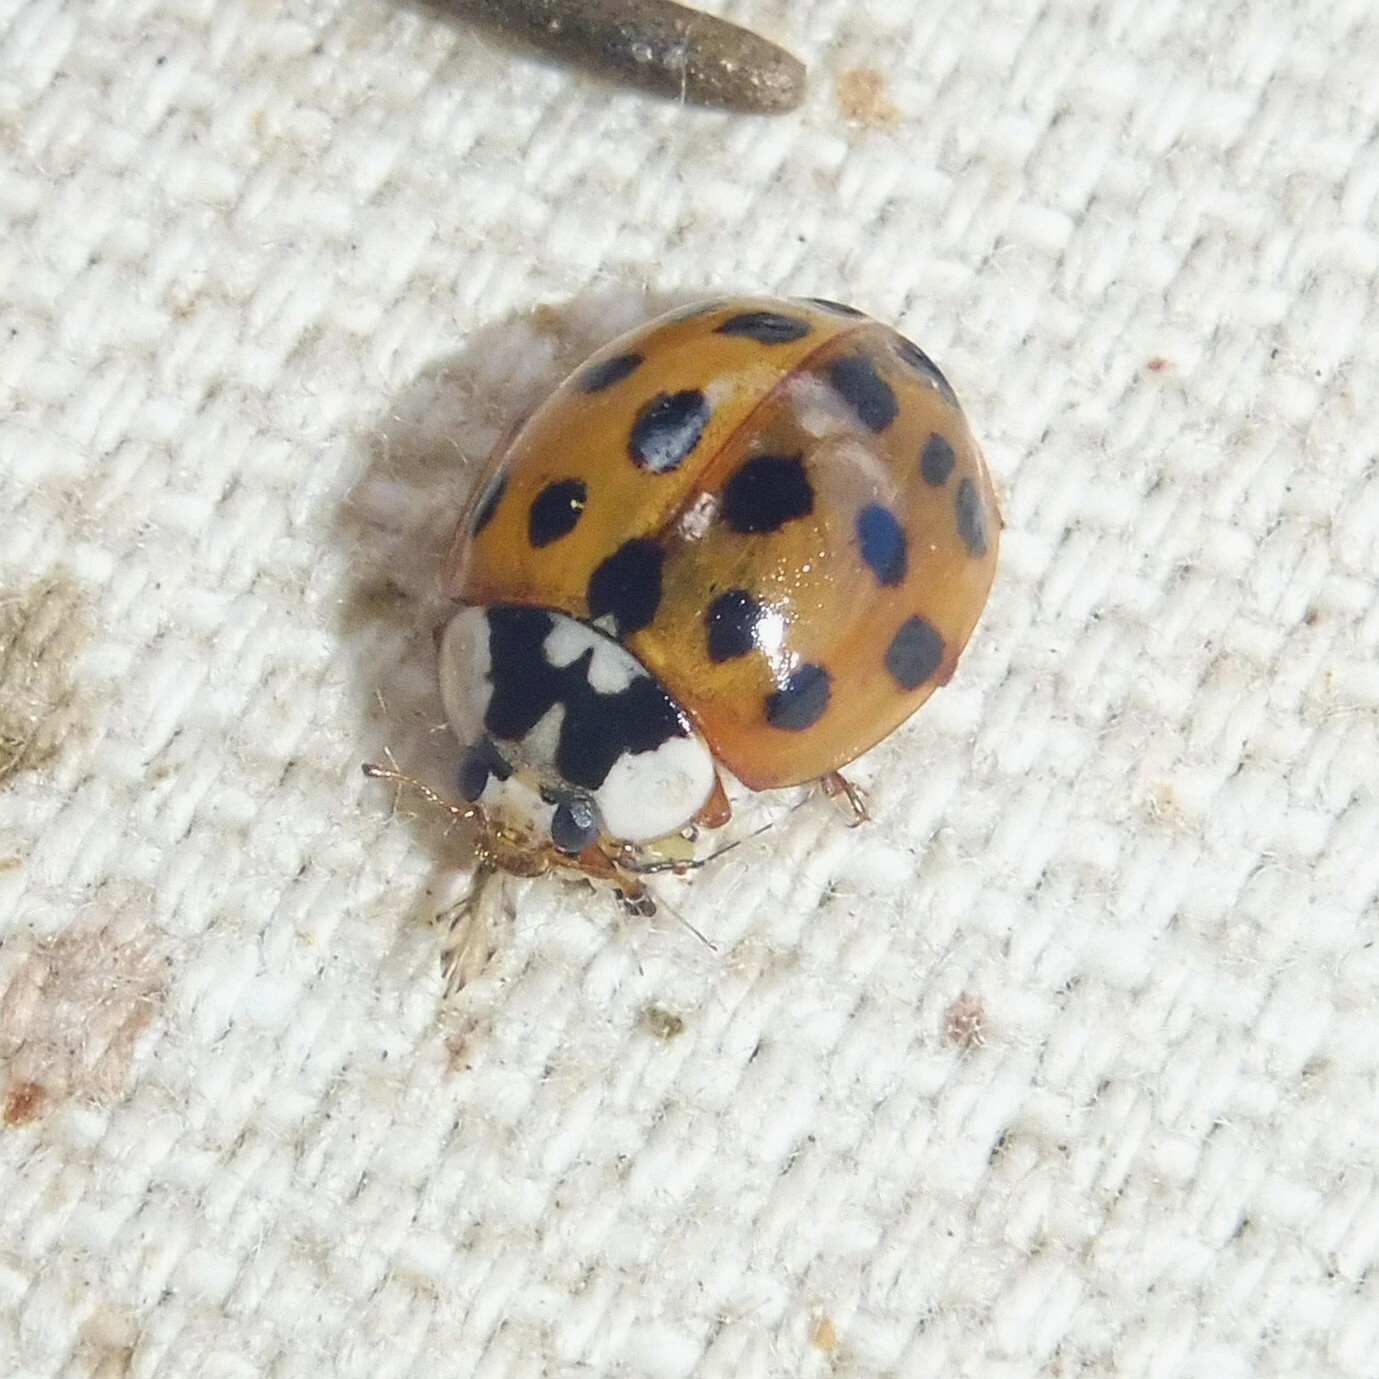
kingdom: Animalia
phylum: Arthropoda
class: Insecta
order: Coleoptera
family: Coccinellidae
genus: Harmonia
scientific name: Harmonia axyridis
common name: Harlequin ladybird
